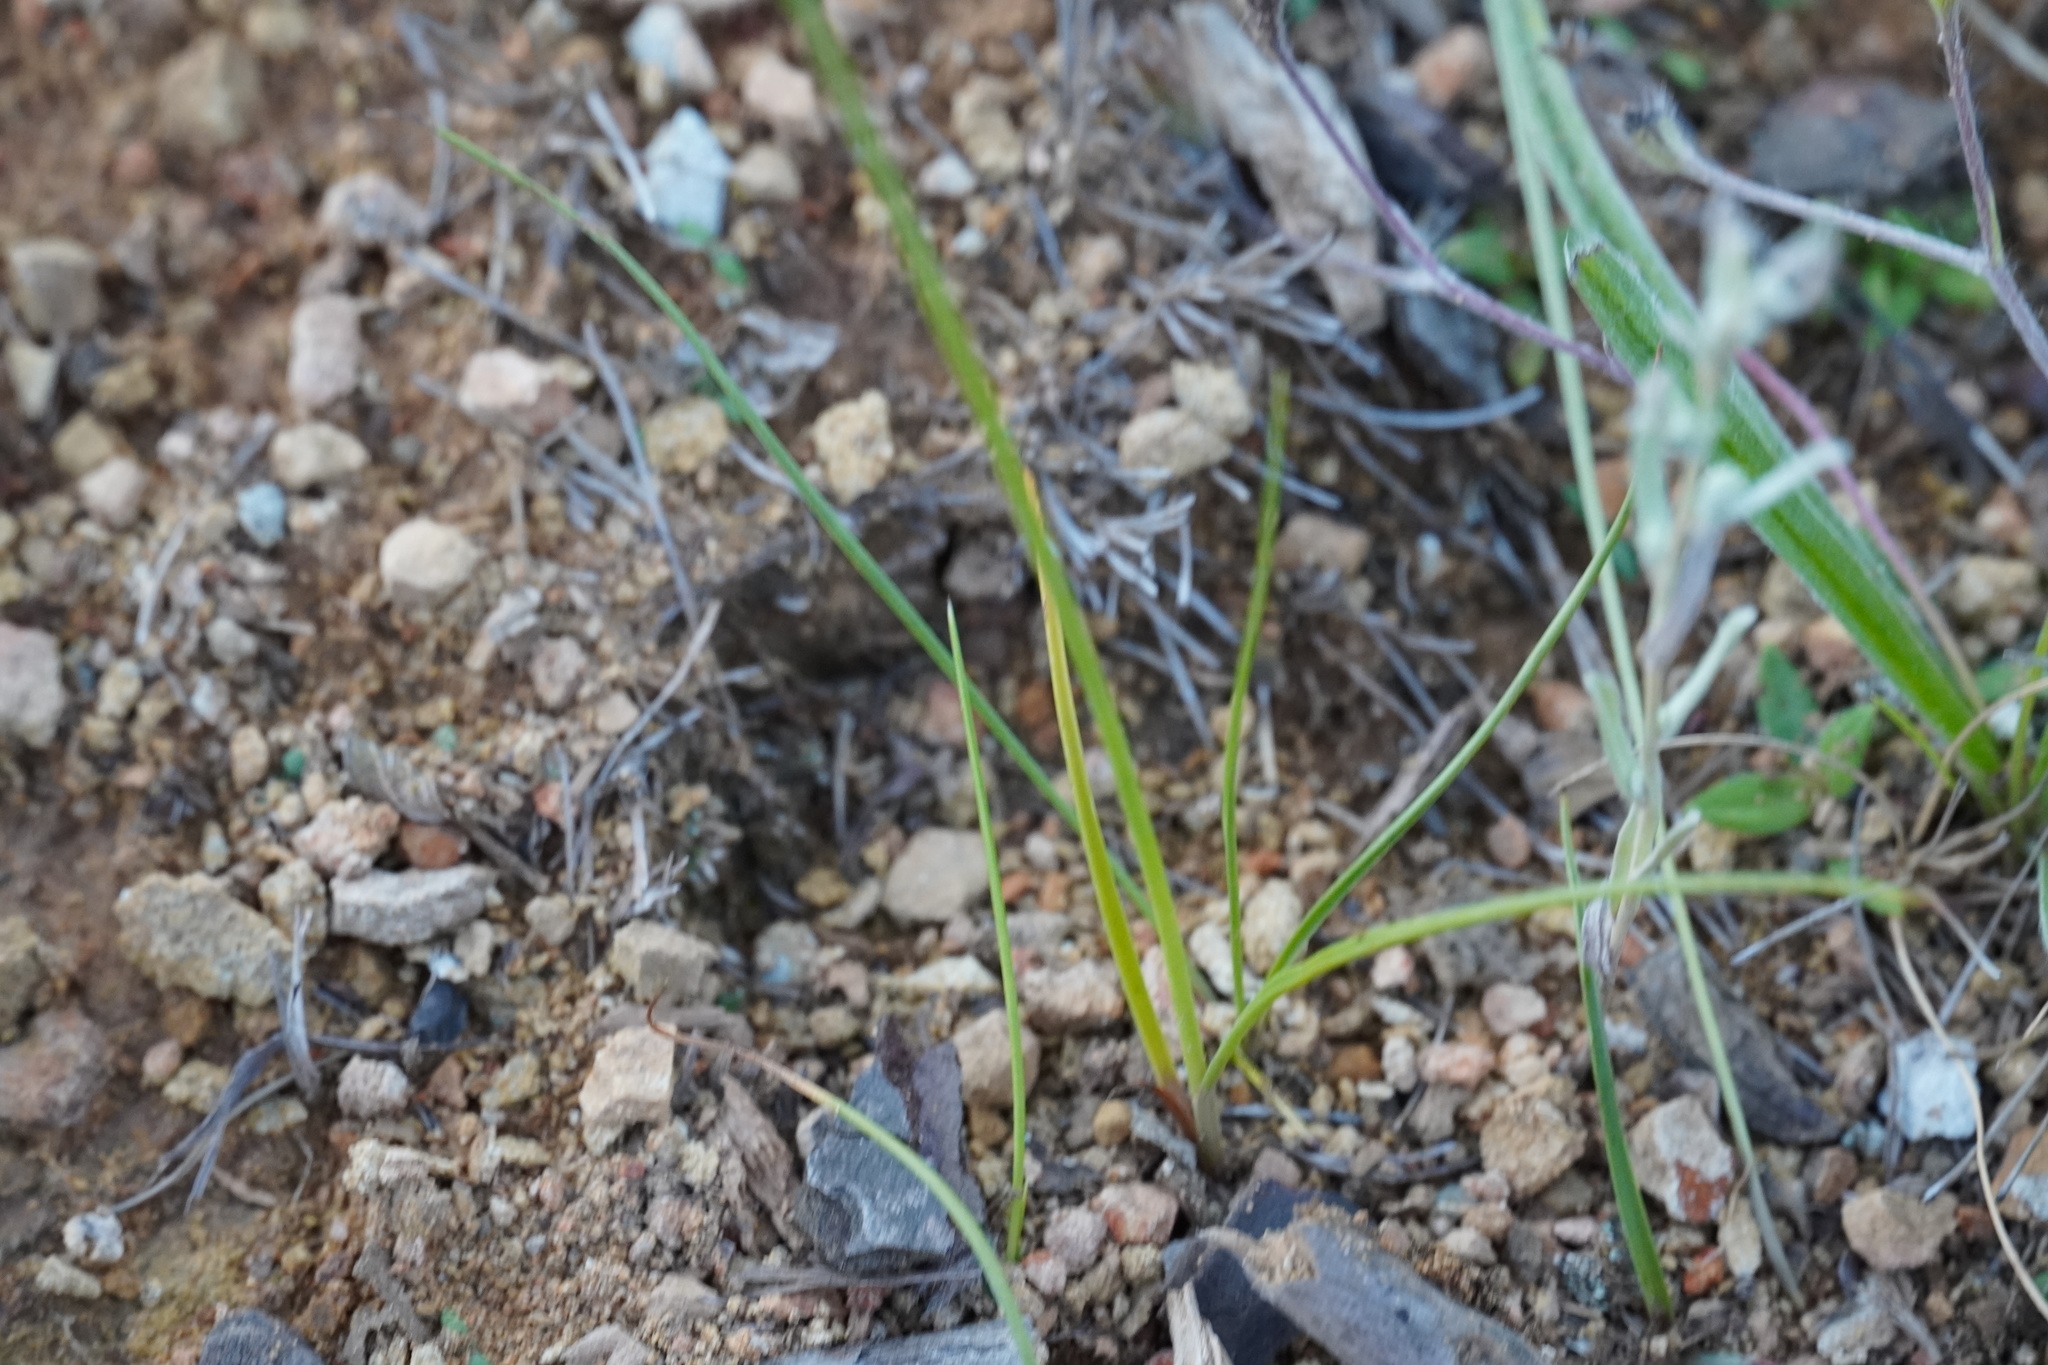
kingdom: Plantae
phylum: Tracheophyta
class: Liliopsida
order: Poales
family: Cyperaceae
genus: Cyperus
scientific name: Cyperus semitrifidus
